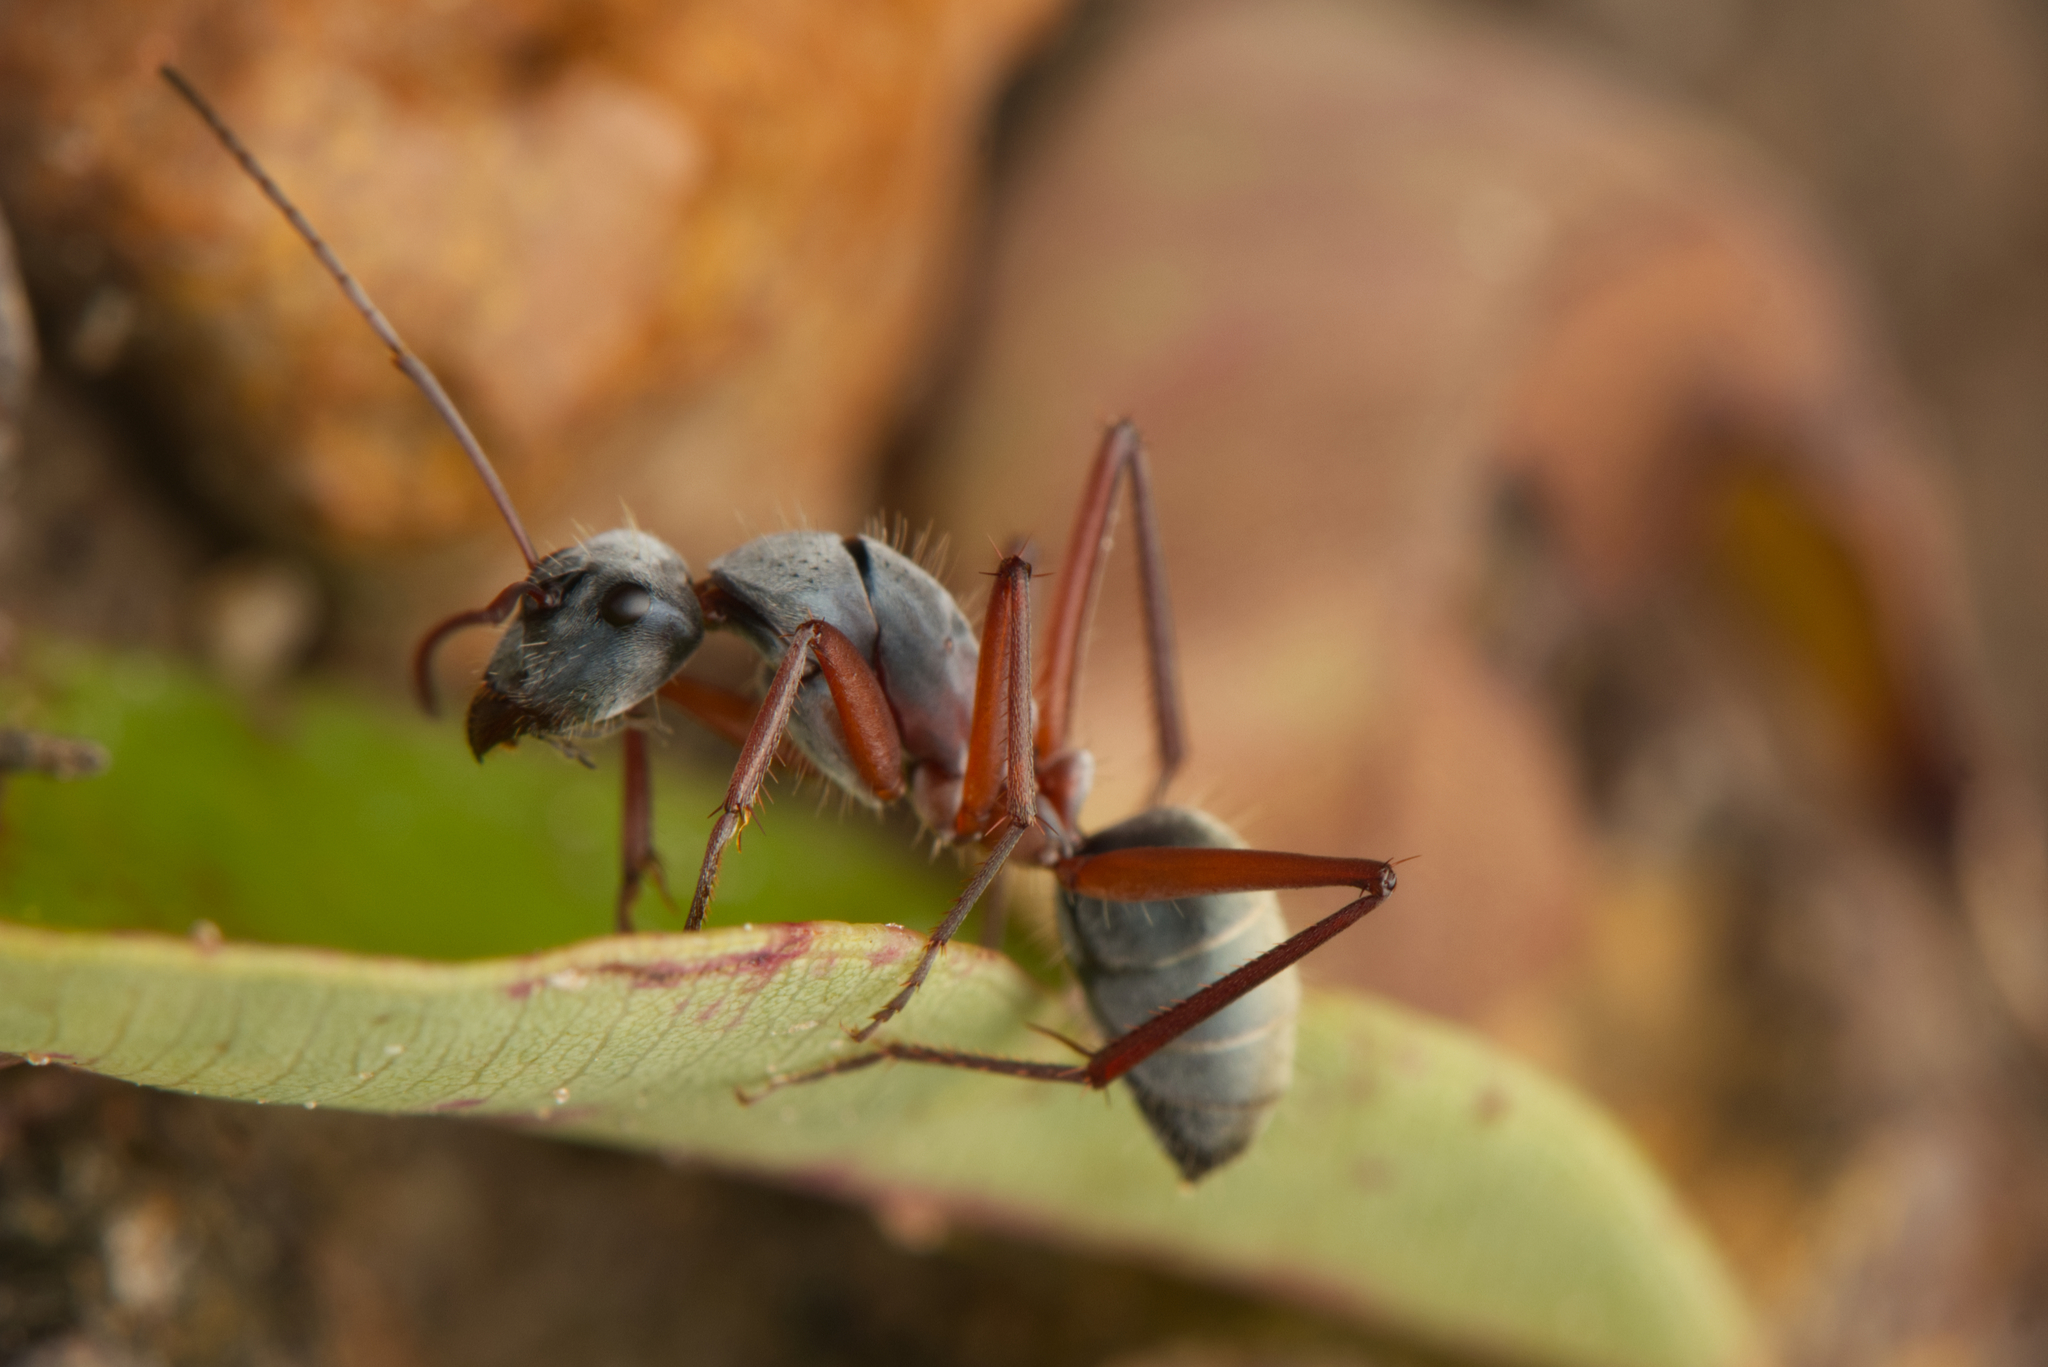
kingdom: Animalia
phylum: Arthropoda
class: Insecta
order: Hymenoptera
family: Formicidae
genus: Camponotus
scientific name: Camponotus dromas
